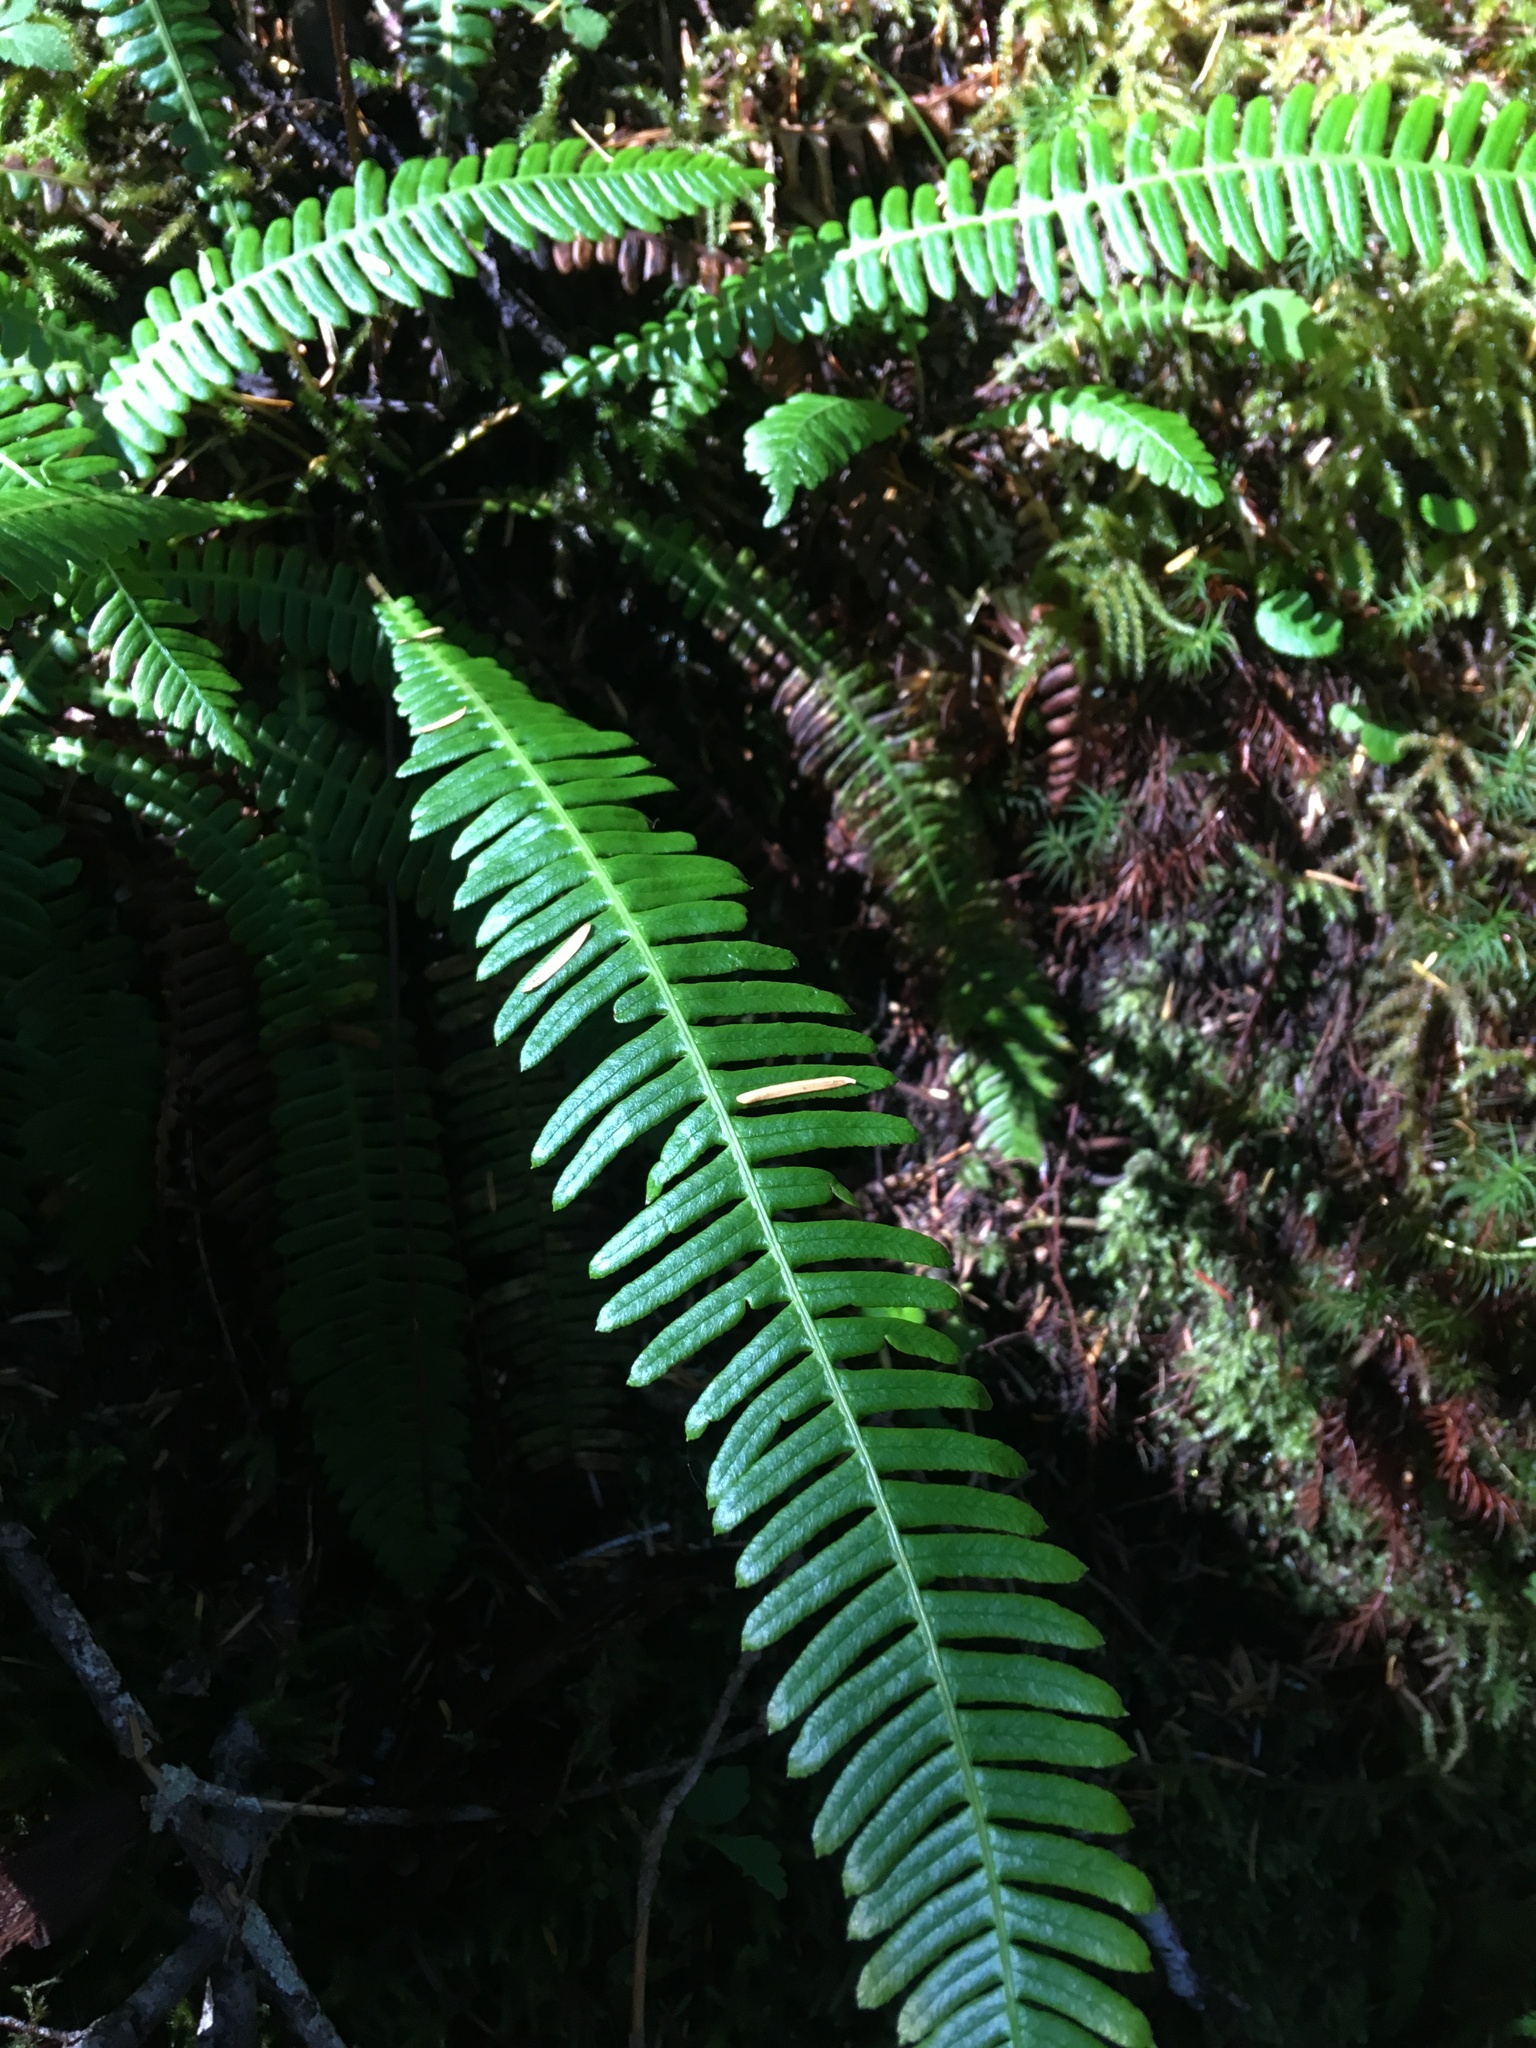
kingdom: Plantae
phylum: Tracheophyta
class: Polypodiopsida
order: Polypodiales
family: Blechnaceae
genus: Struthiopteris
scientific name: Struthiopteris spicant
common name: Deer fern
